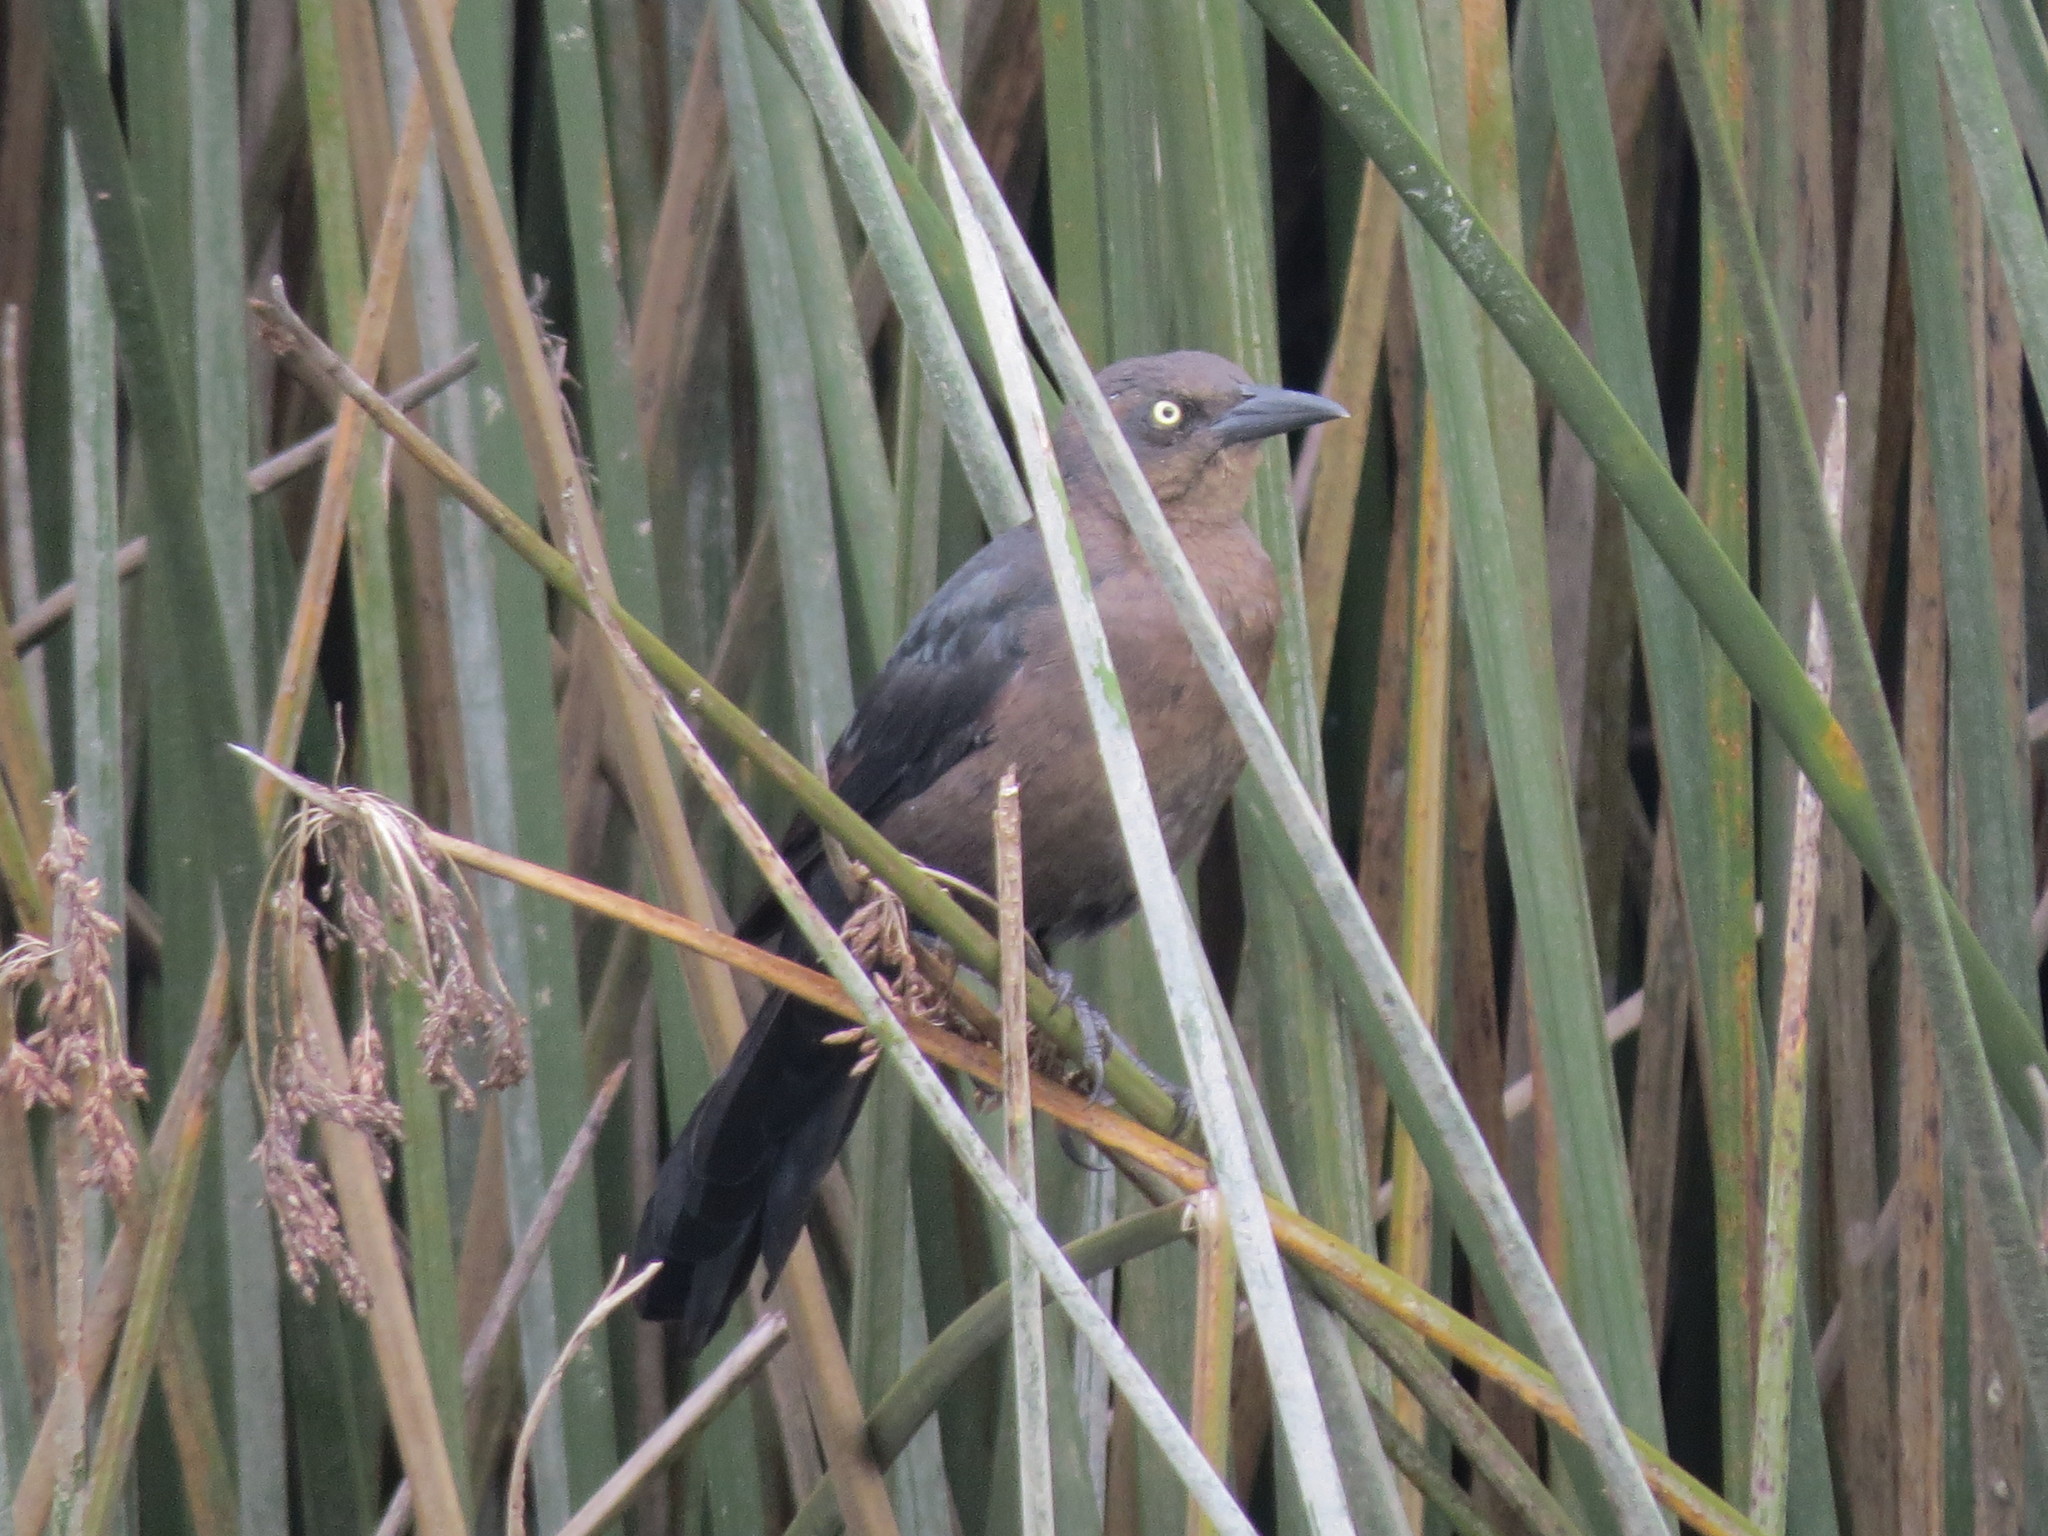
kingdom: Animalia
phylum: Chordata
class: Aves
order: Passeriformes
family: Icteridae
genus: Quiscalus
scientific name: Quiscalus mexicanus
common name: Great-tailed grackle
